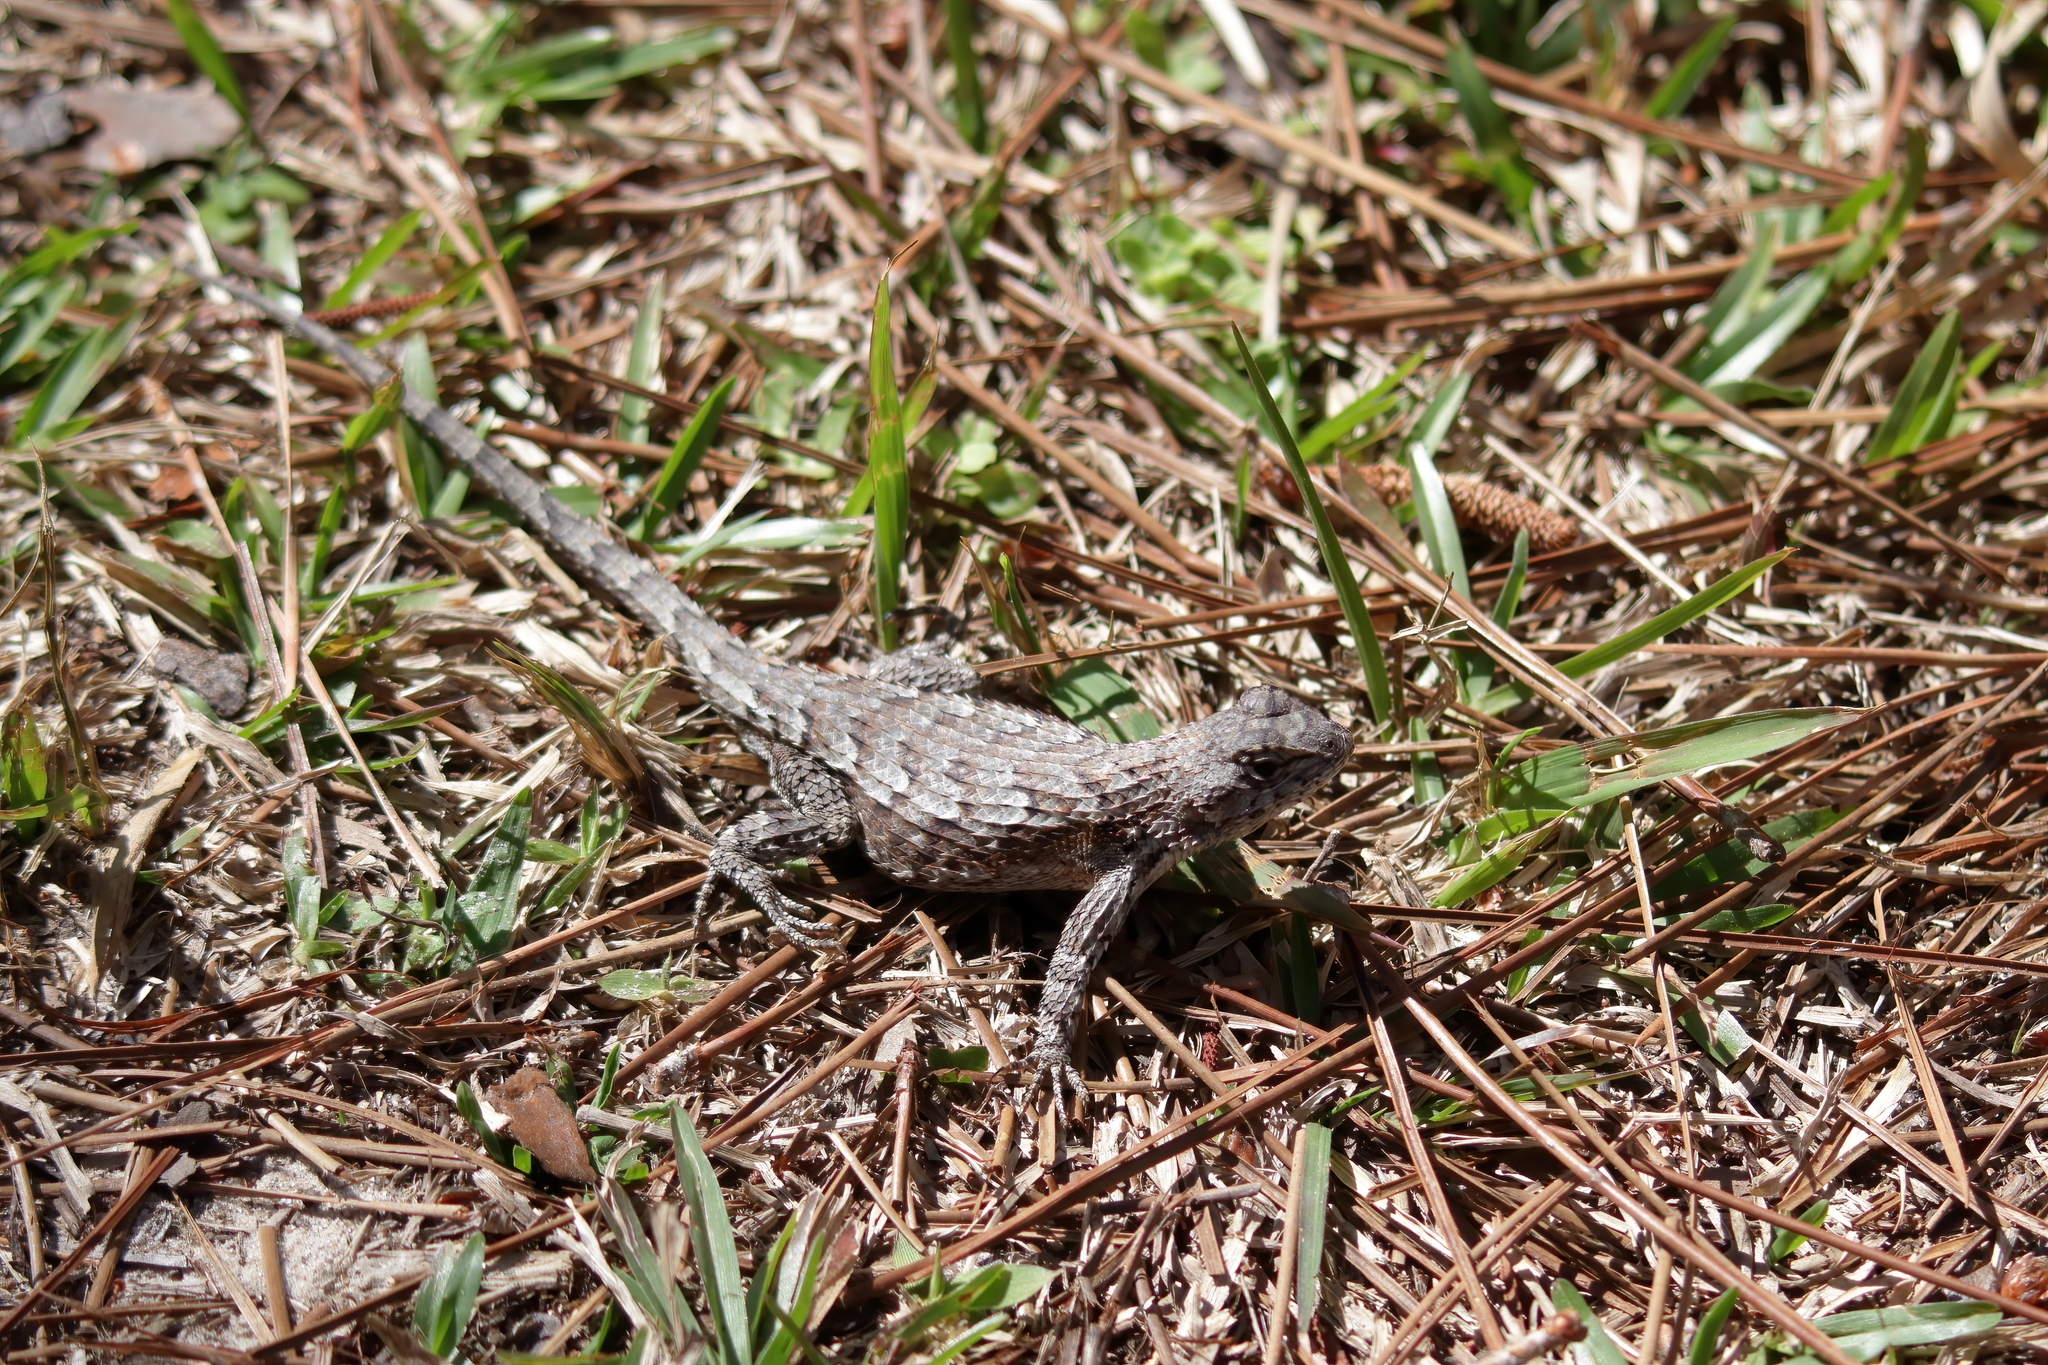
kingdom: Animalia
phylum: Chordata
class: Squamata
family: Phrynosomatidae
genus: Sceloporus
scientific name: Sceloporus undulatus
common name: Eastern fence lizard
